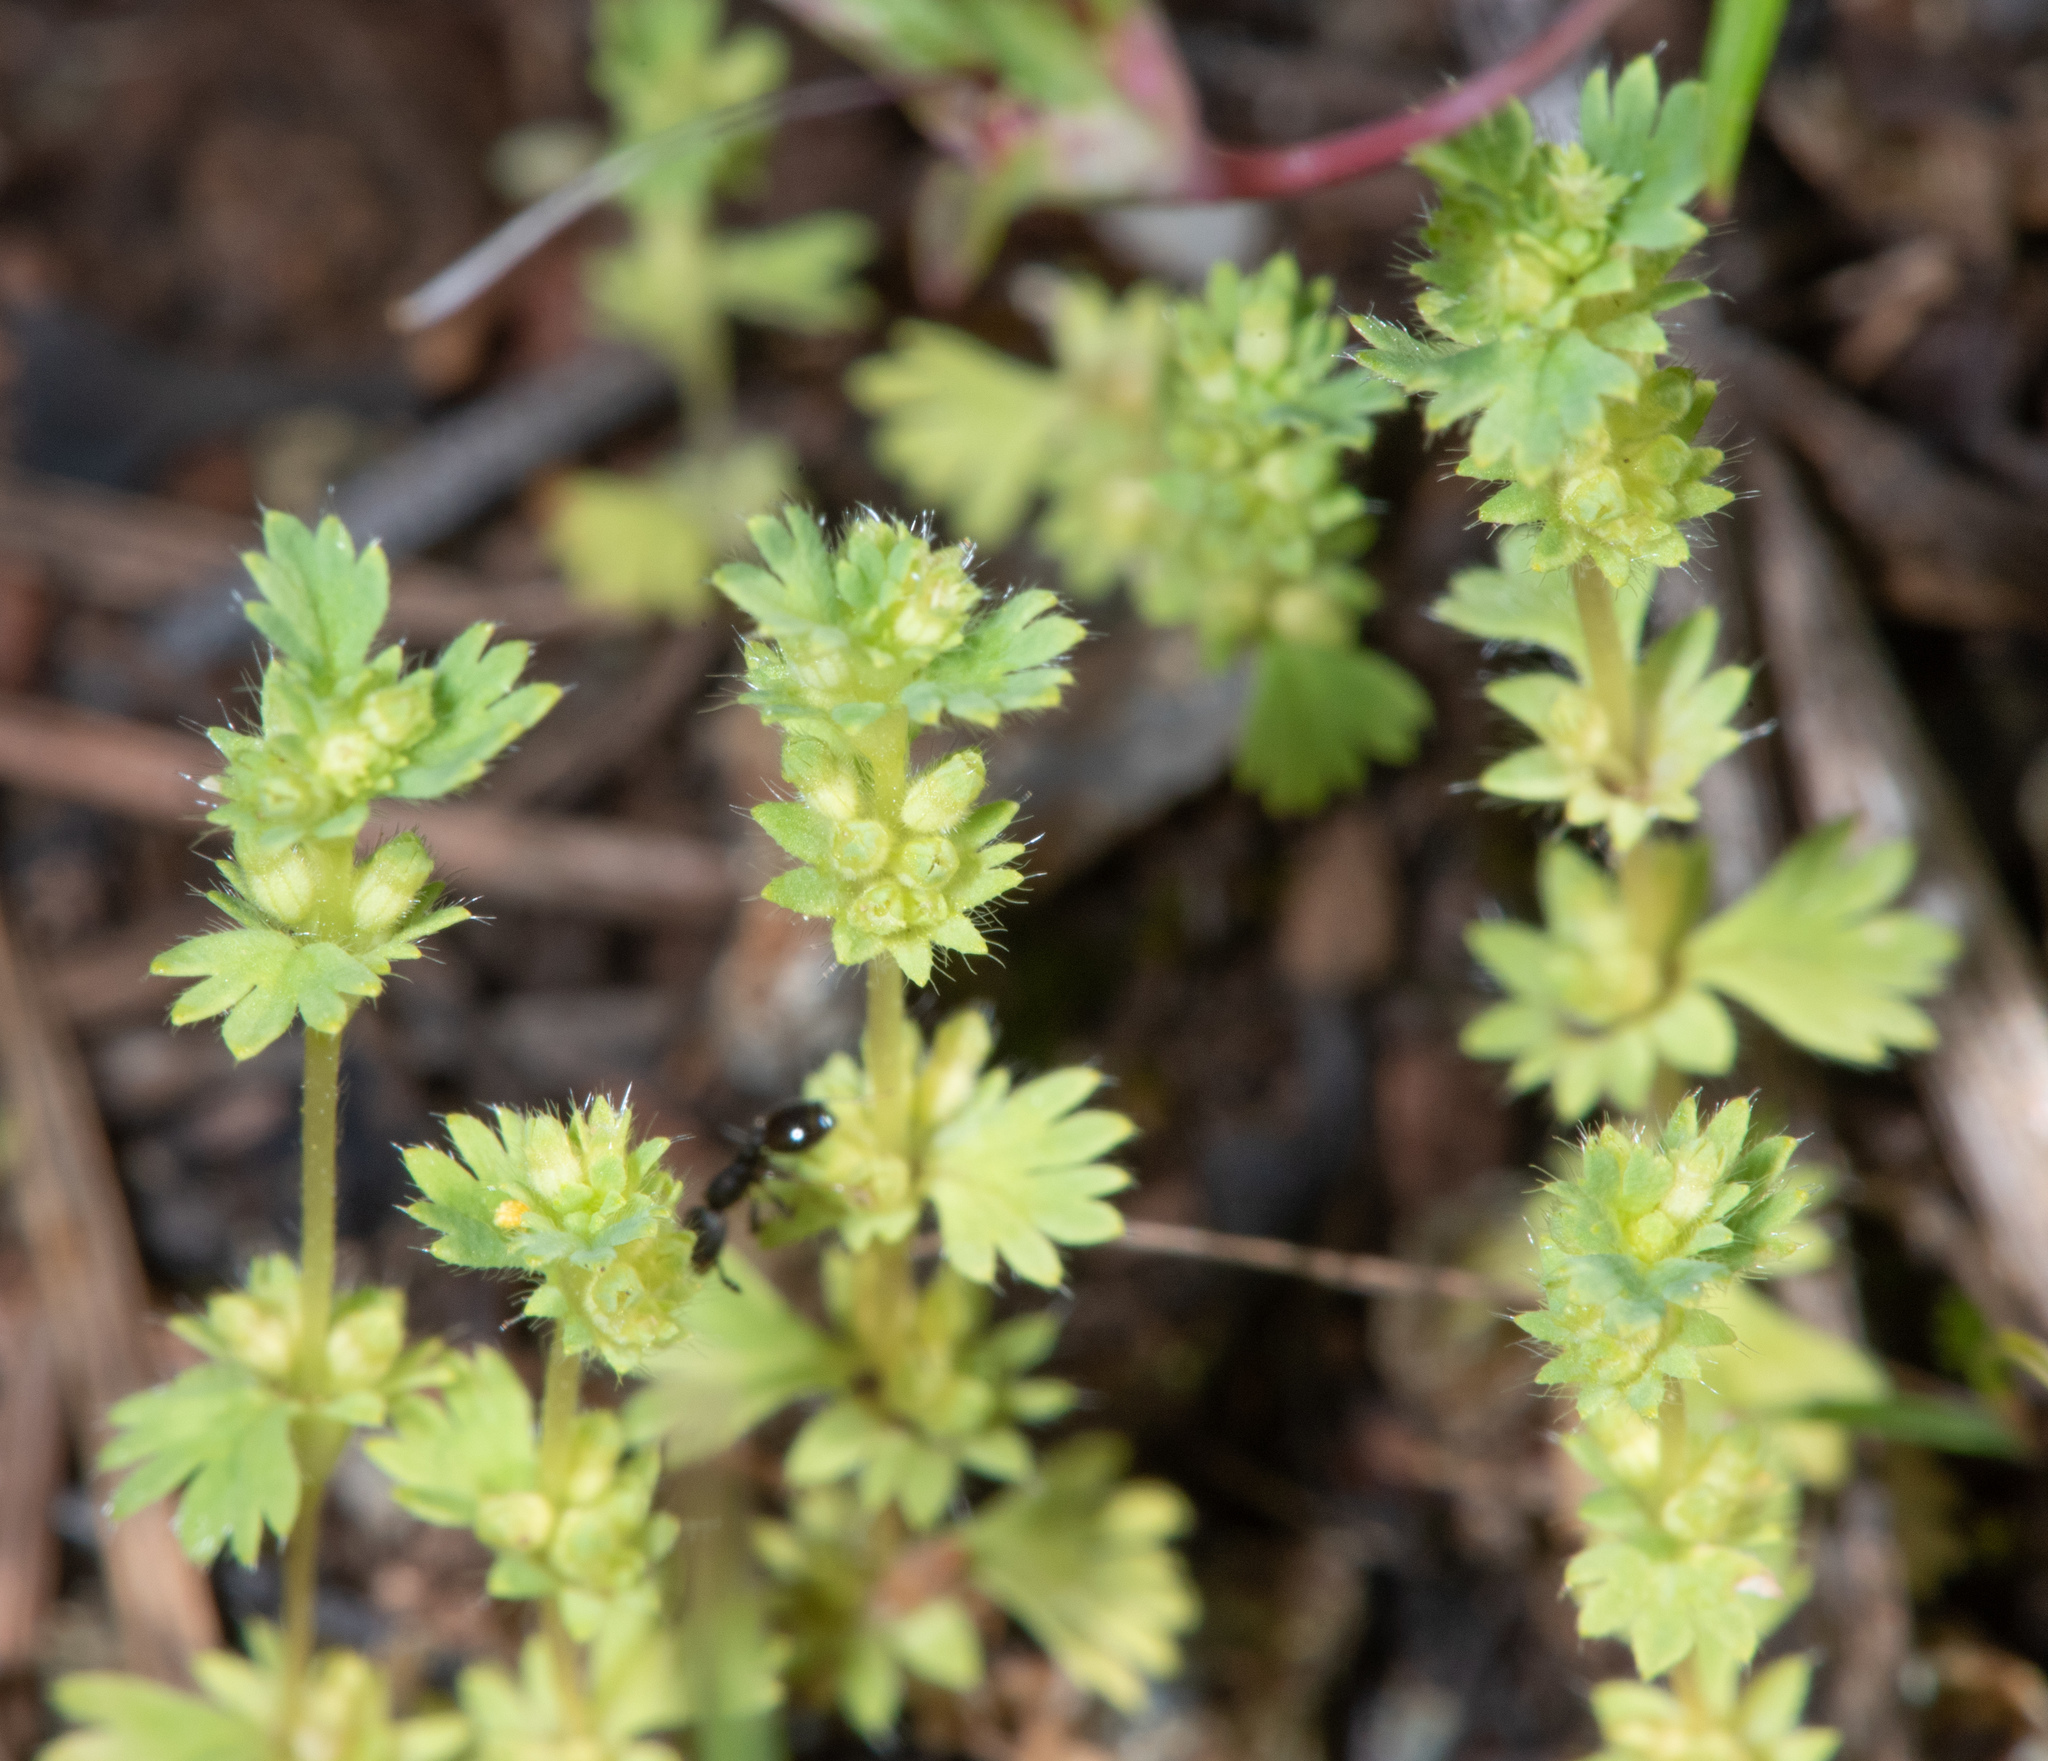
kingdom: Plantae
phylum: Tracheophyta
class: Magnoliopsida
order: Rosales
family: Rosaceae
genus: Aphanes
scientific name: Aphanes arvensis
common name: Parsley-piert
